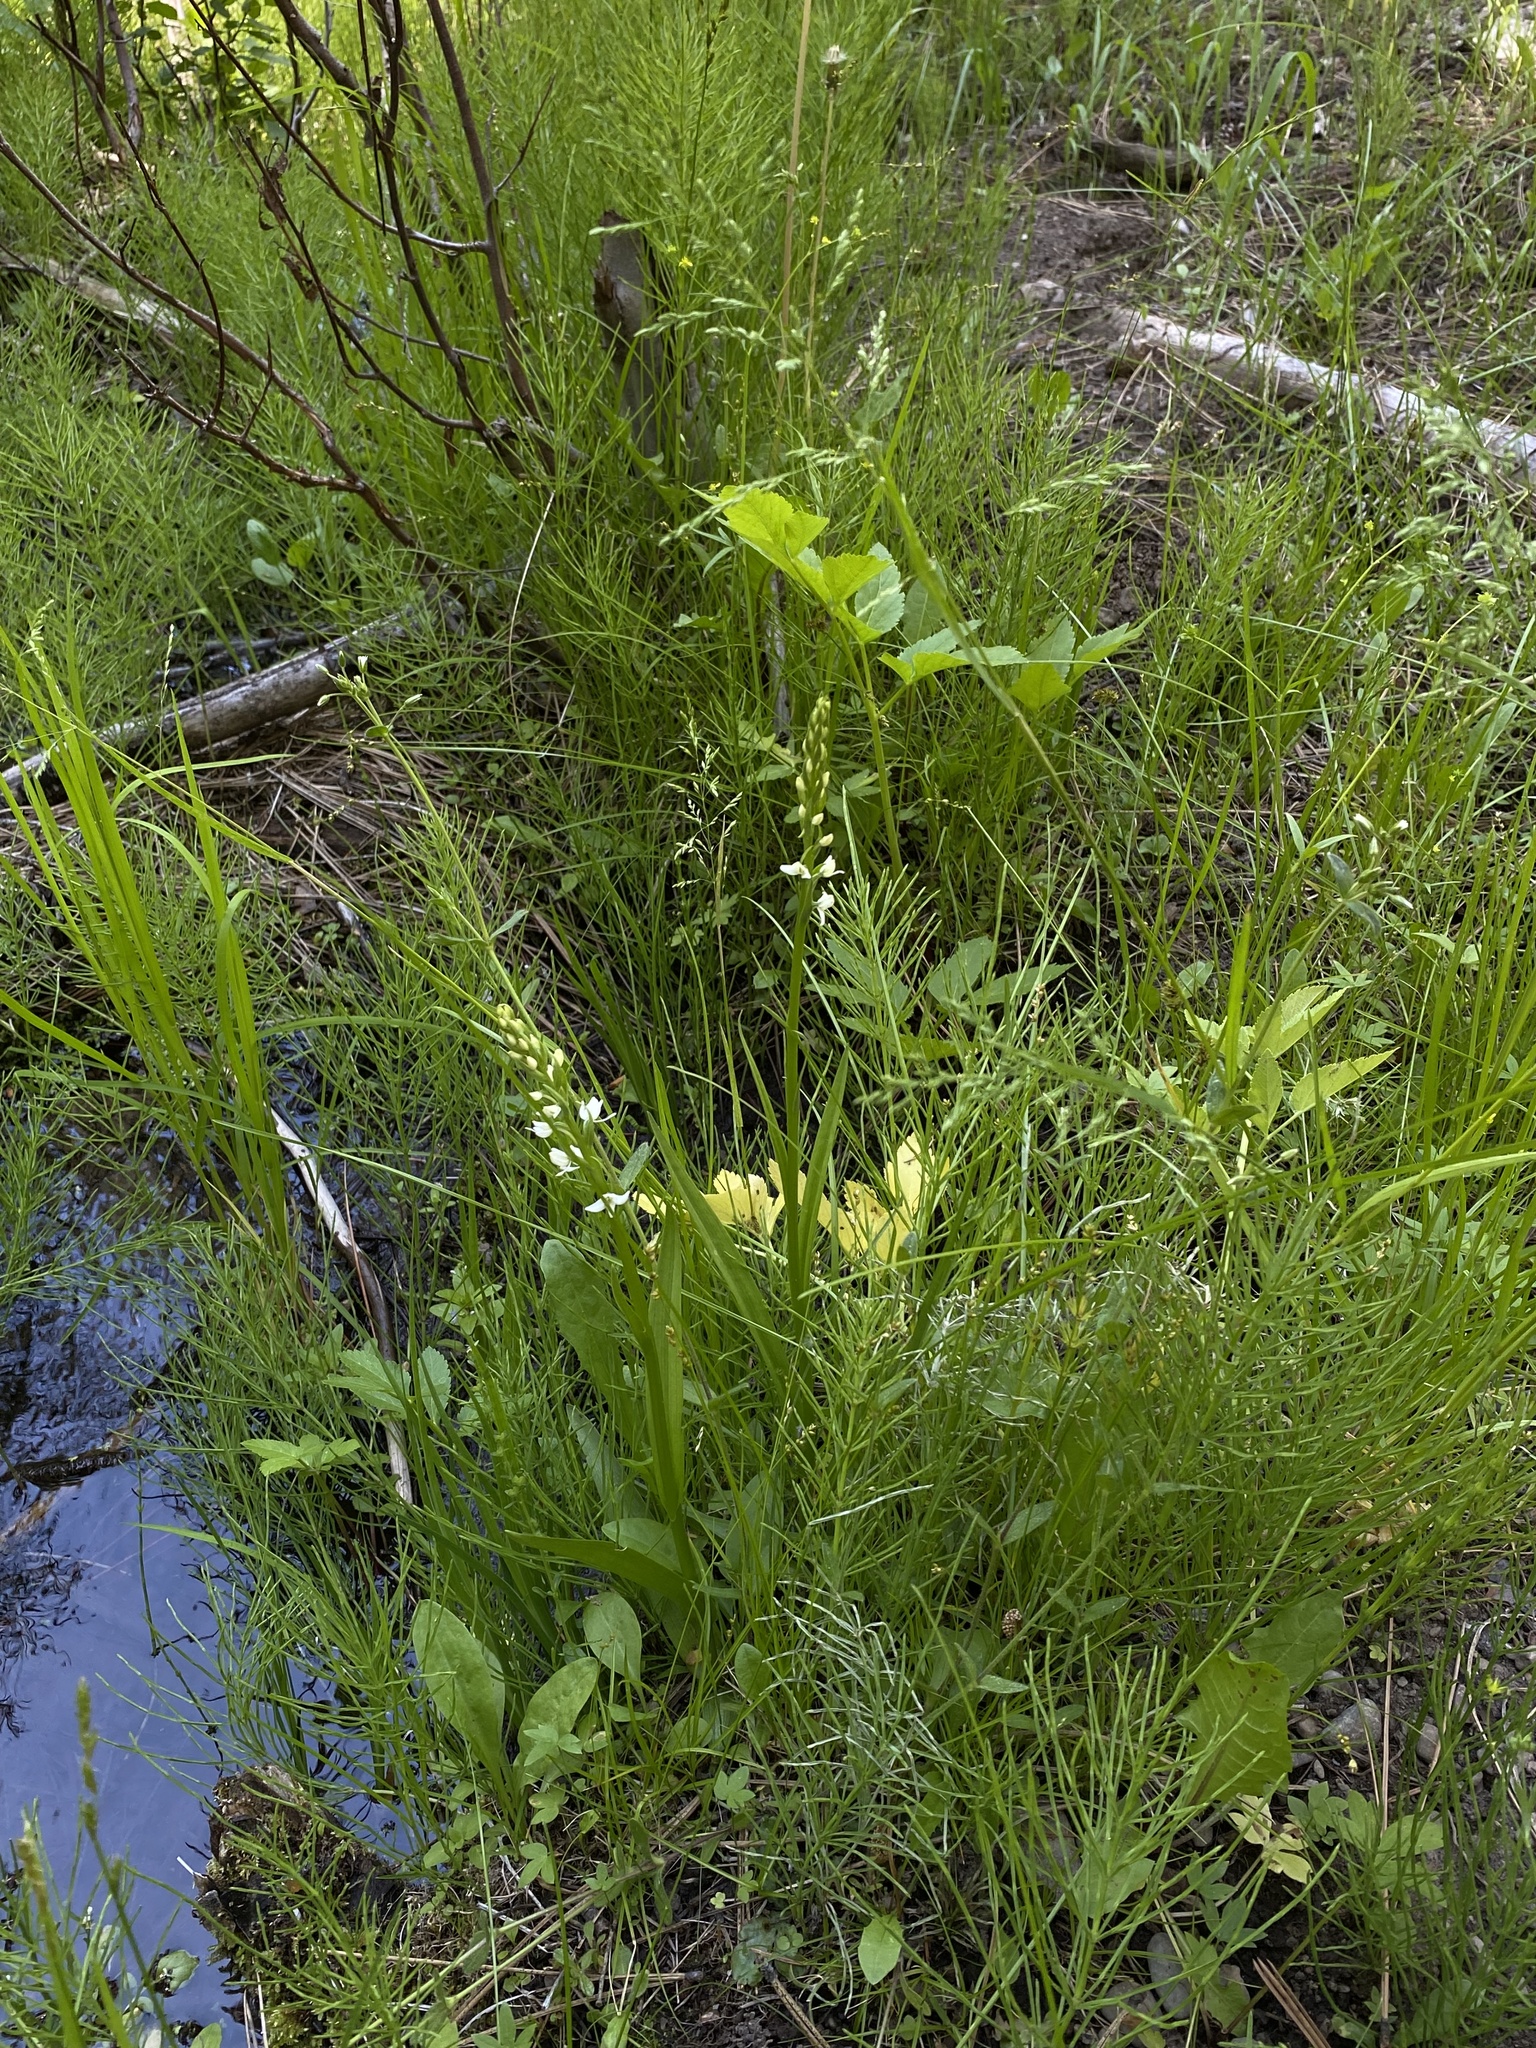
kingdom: Plantae
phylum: Tracheophyta
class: Liliopsida
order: Asparagales
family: Orchidaceae
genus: Platanthera
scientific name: Platanthera dilatata
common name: Bog candles
